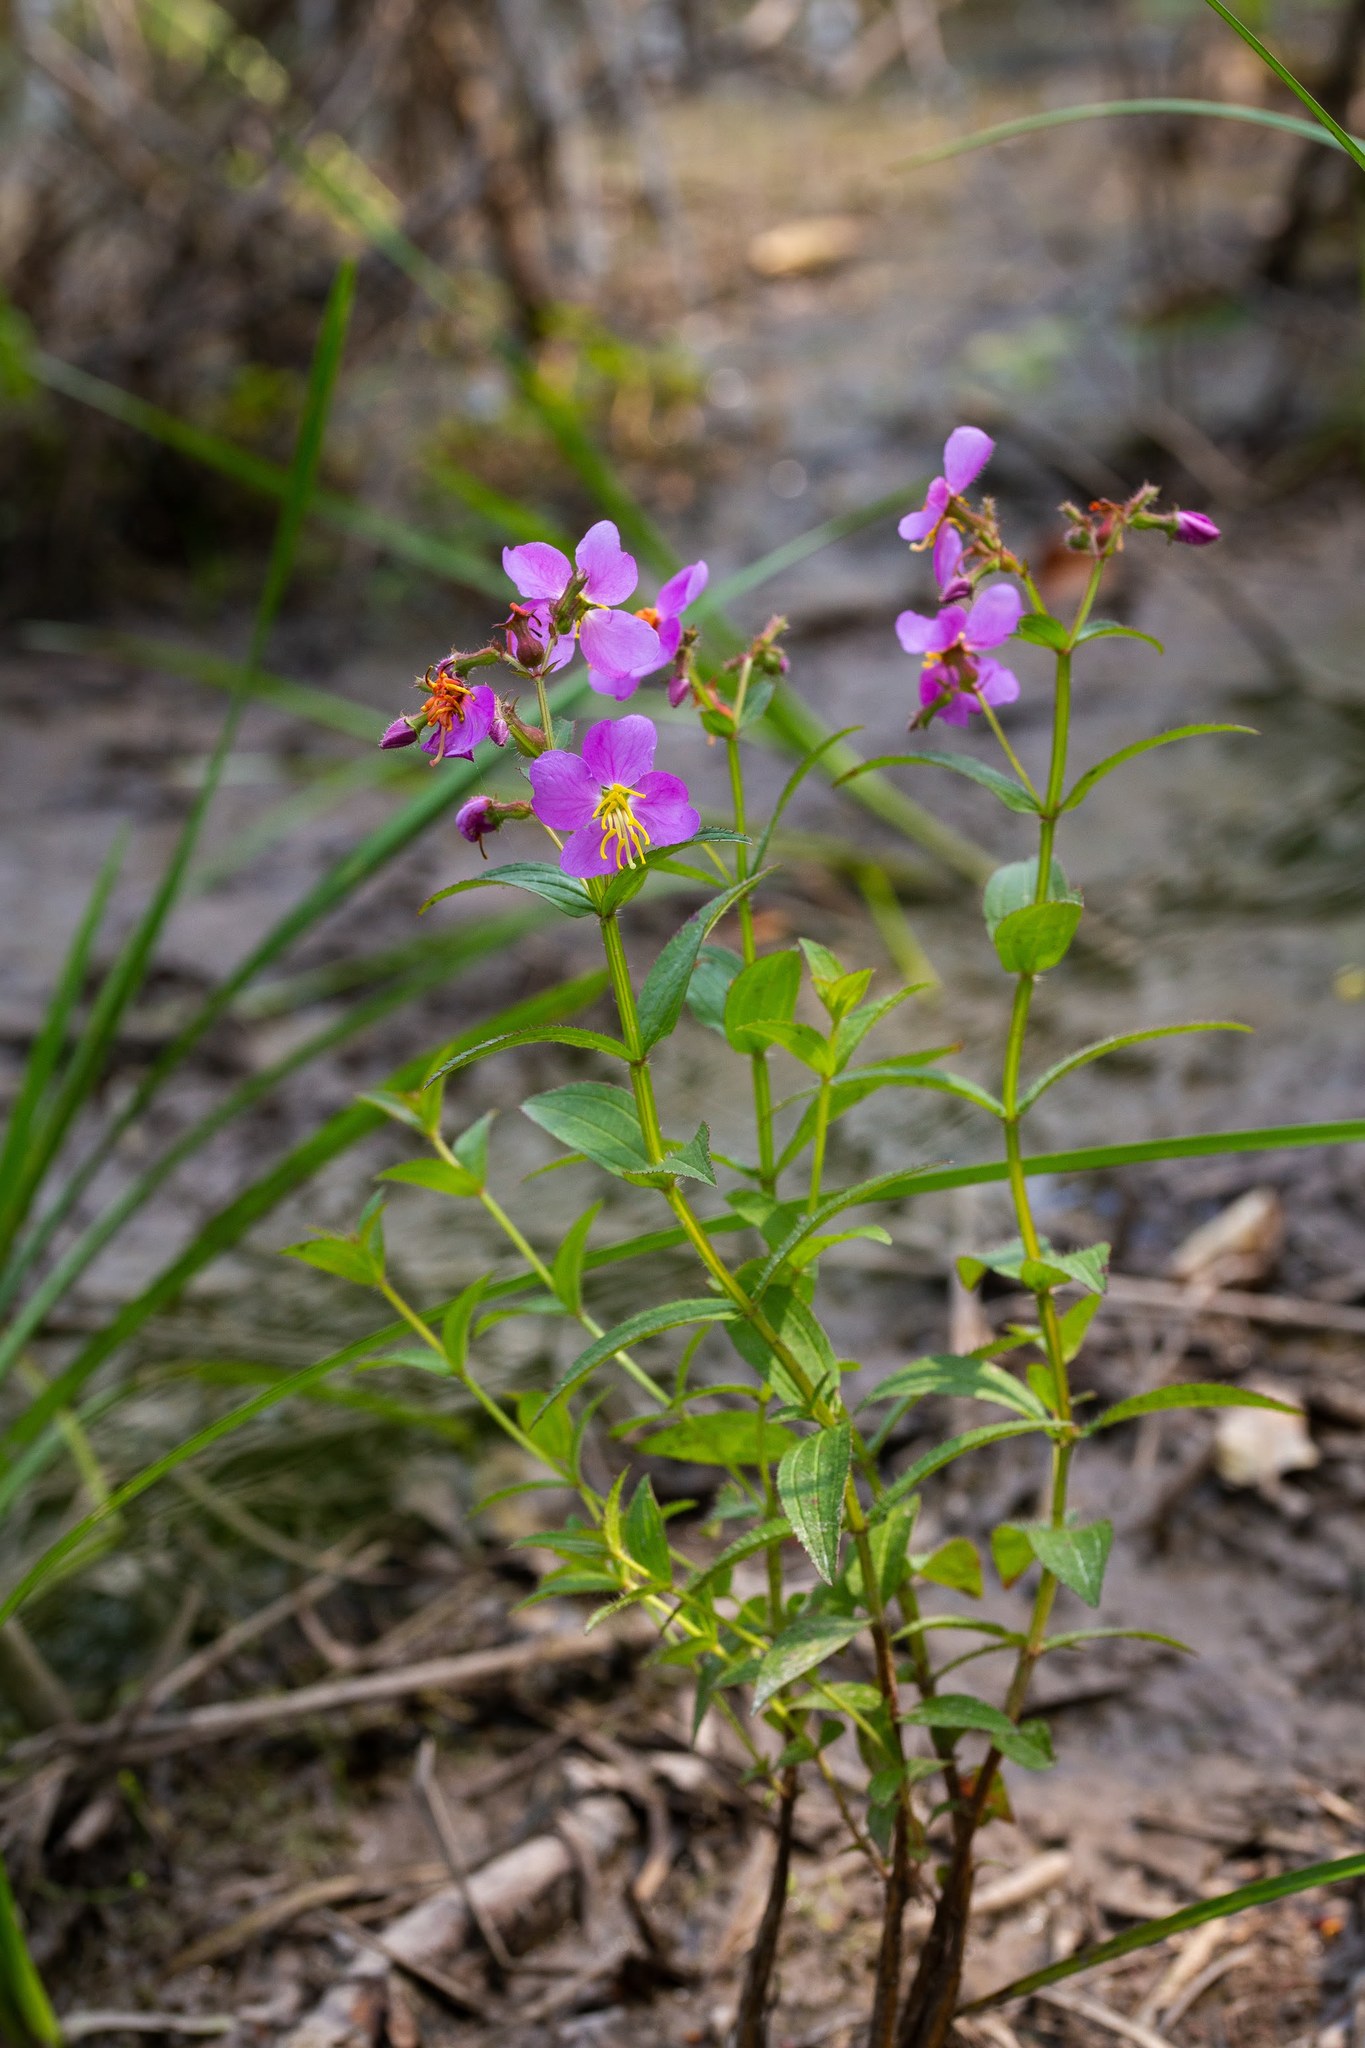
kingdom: Plantae
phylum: Tracheophyta
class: Magnoliopsida
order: Myrtales
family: Melastomataceae
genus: Rhexia
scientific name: Rhexia virginica
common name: Common meadow beauty
